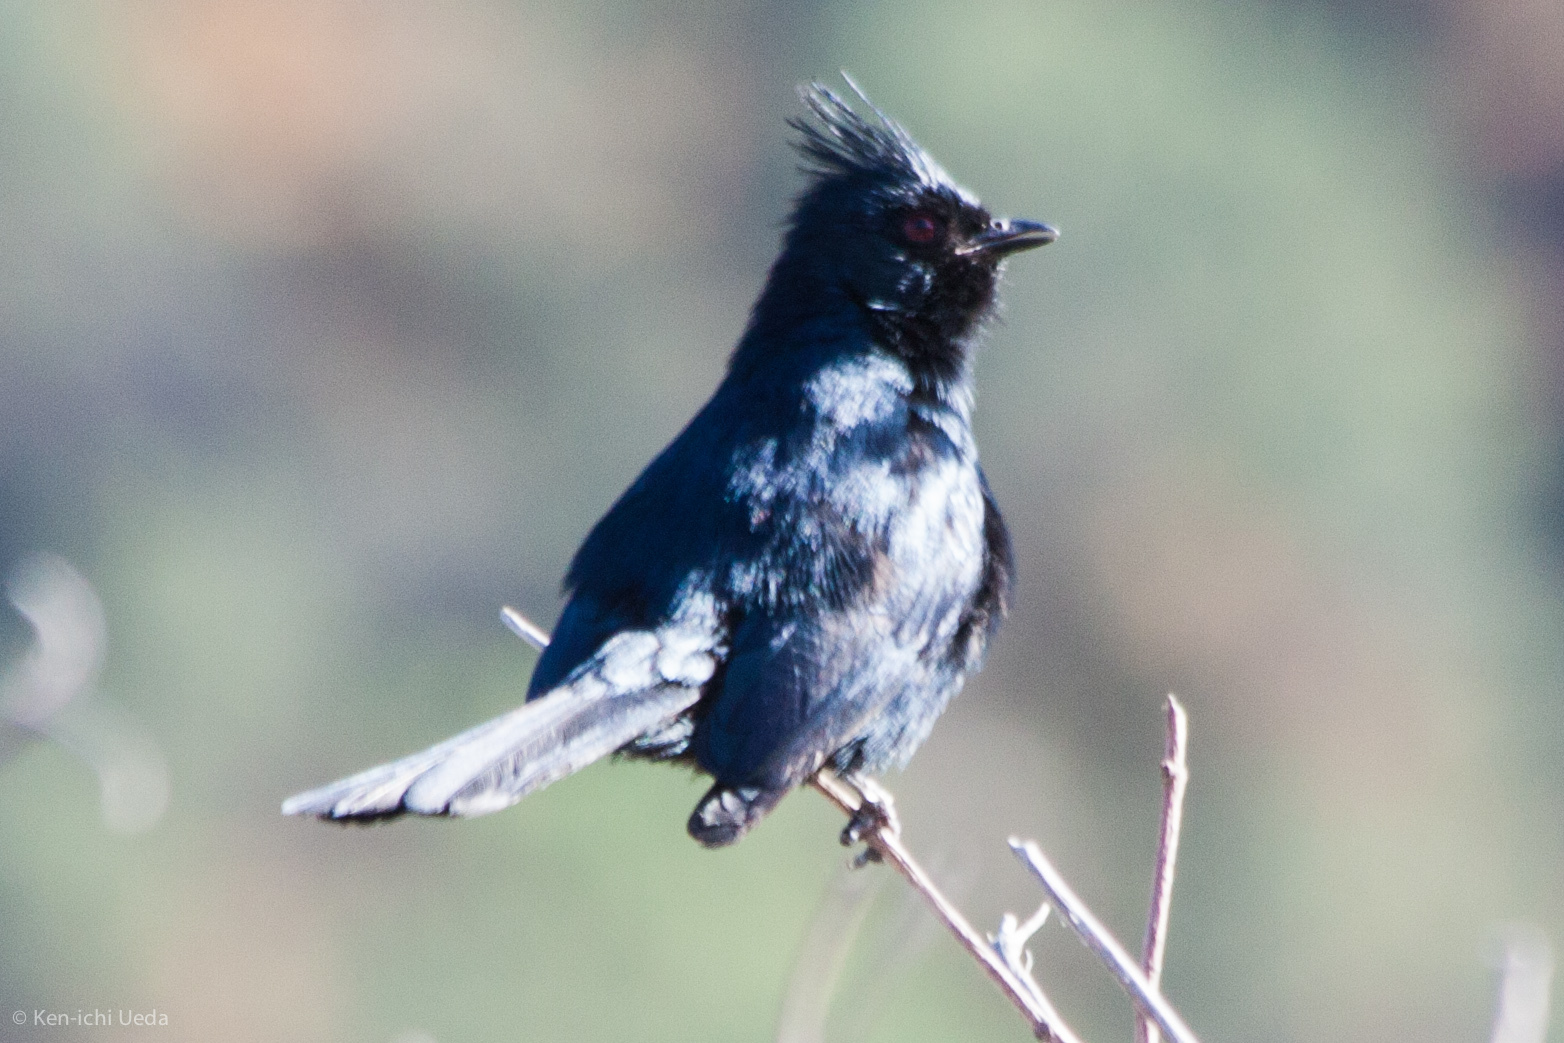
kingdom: Animalia
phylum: Chordata
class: Aves
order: Passeriformes
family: Ptilogonatidae
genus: Phainopepla
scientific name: Phainopepla nitens
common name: Phainopepla
